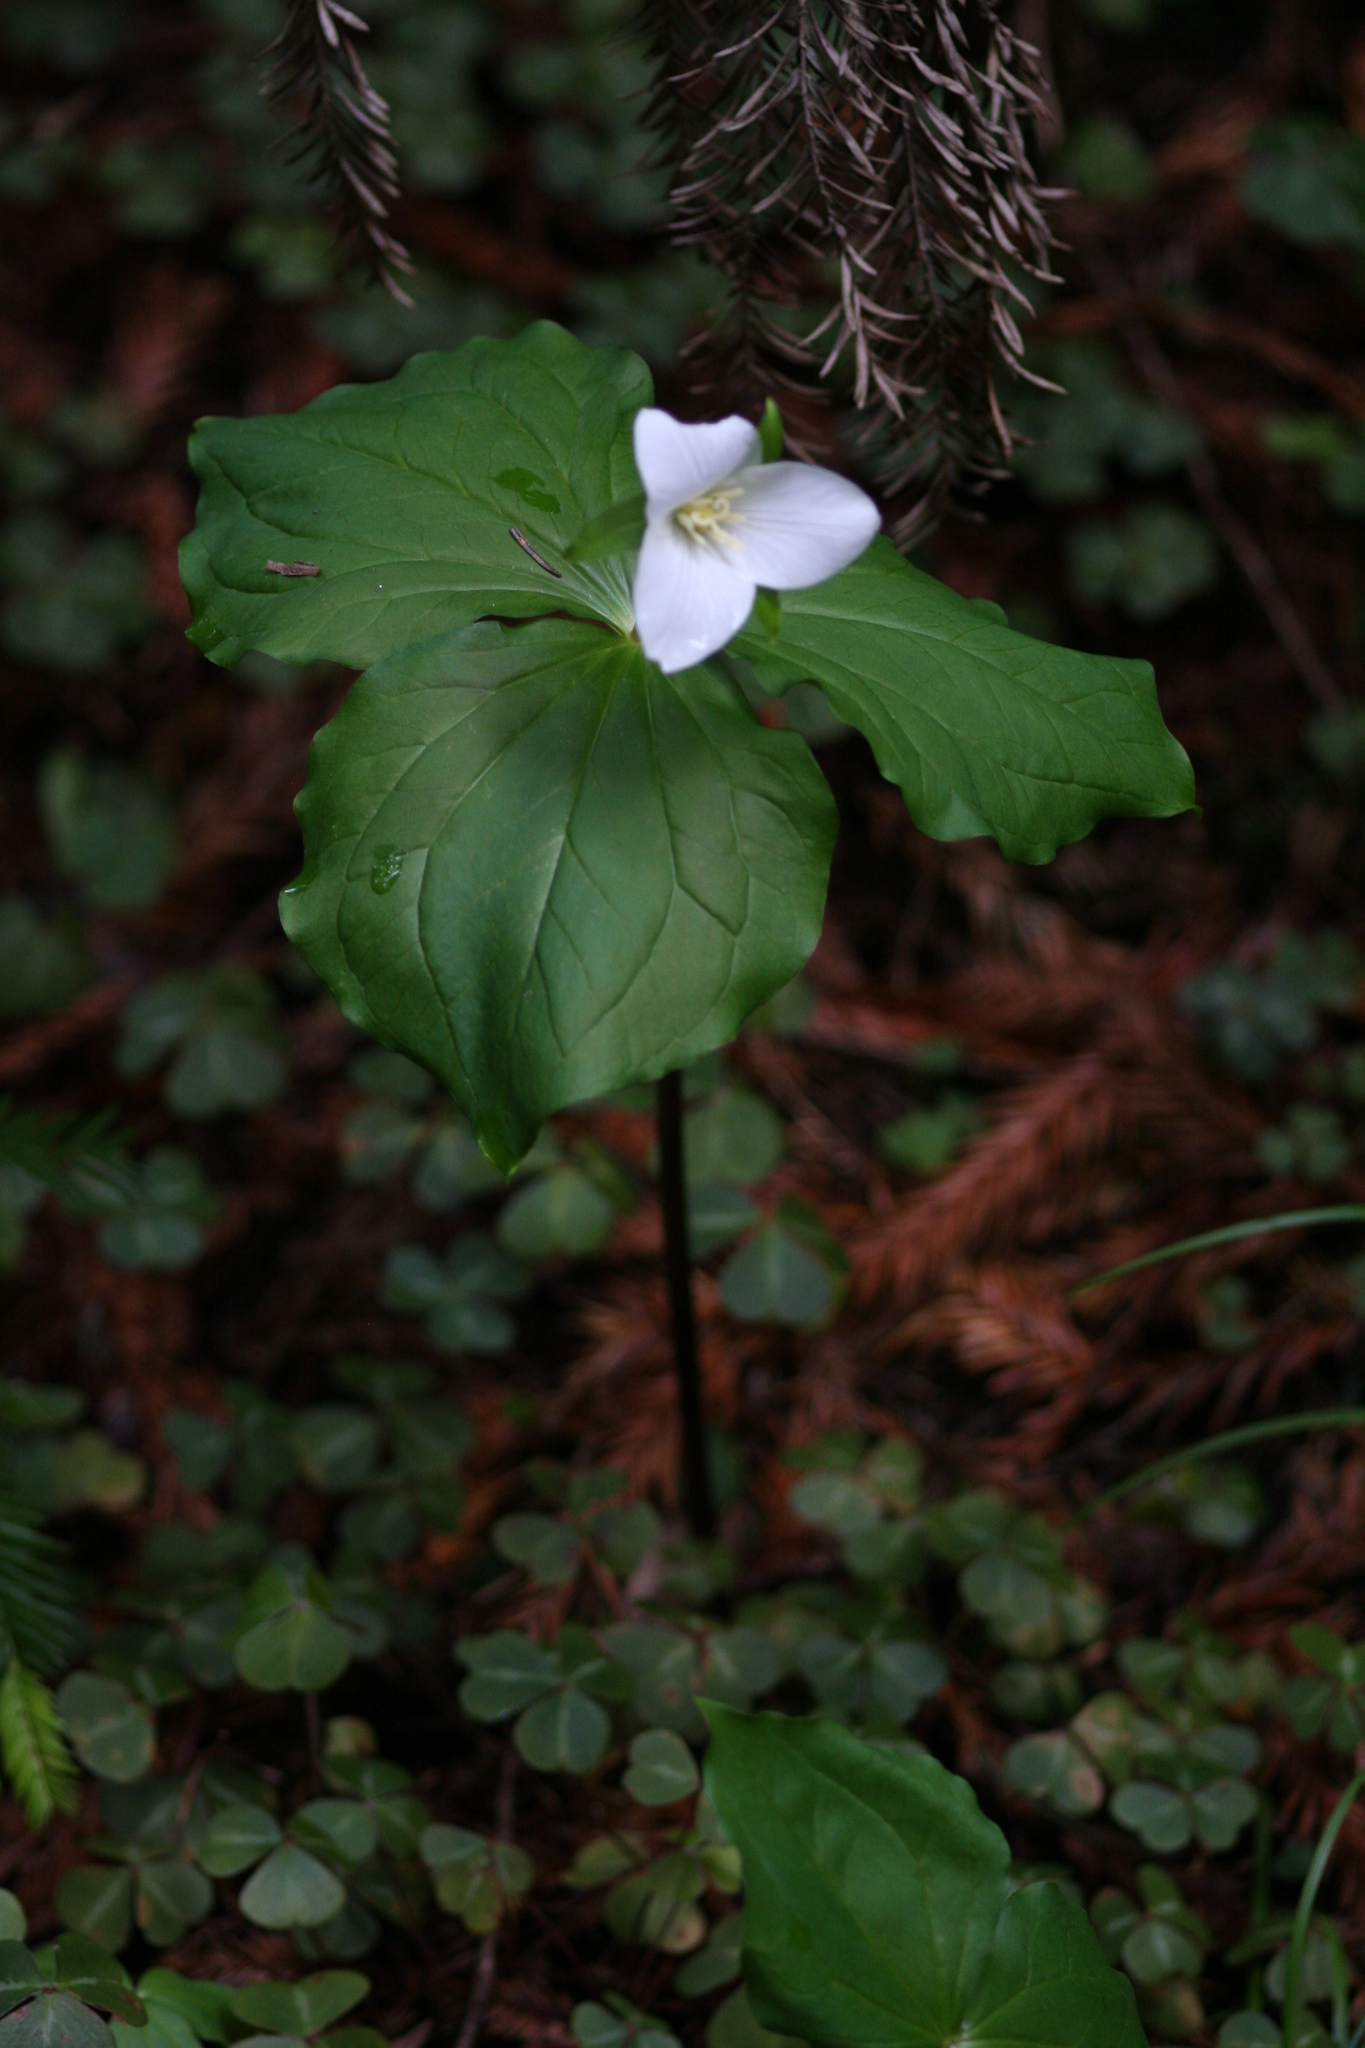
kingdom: Plantae
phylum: Tracheophyta
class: Liliopsida
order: Liliales
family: Melanthiaceae
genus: Trillium
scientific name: Trillium ovatum
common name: Pacific trillium
